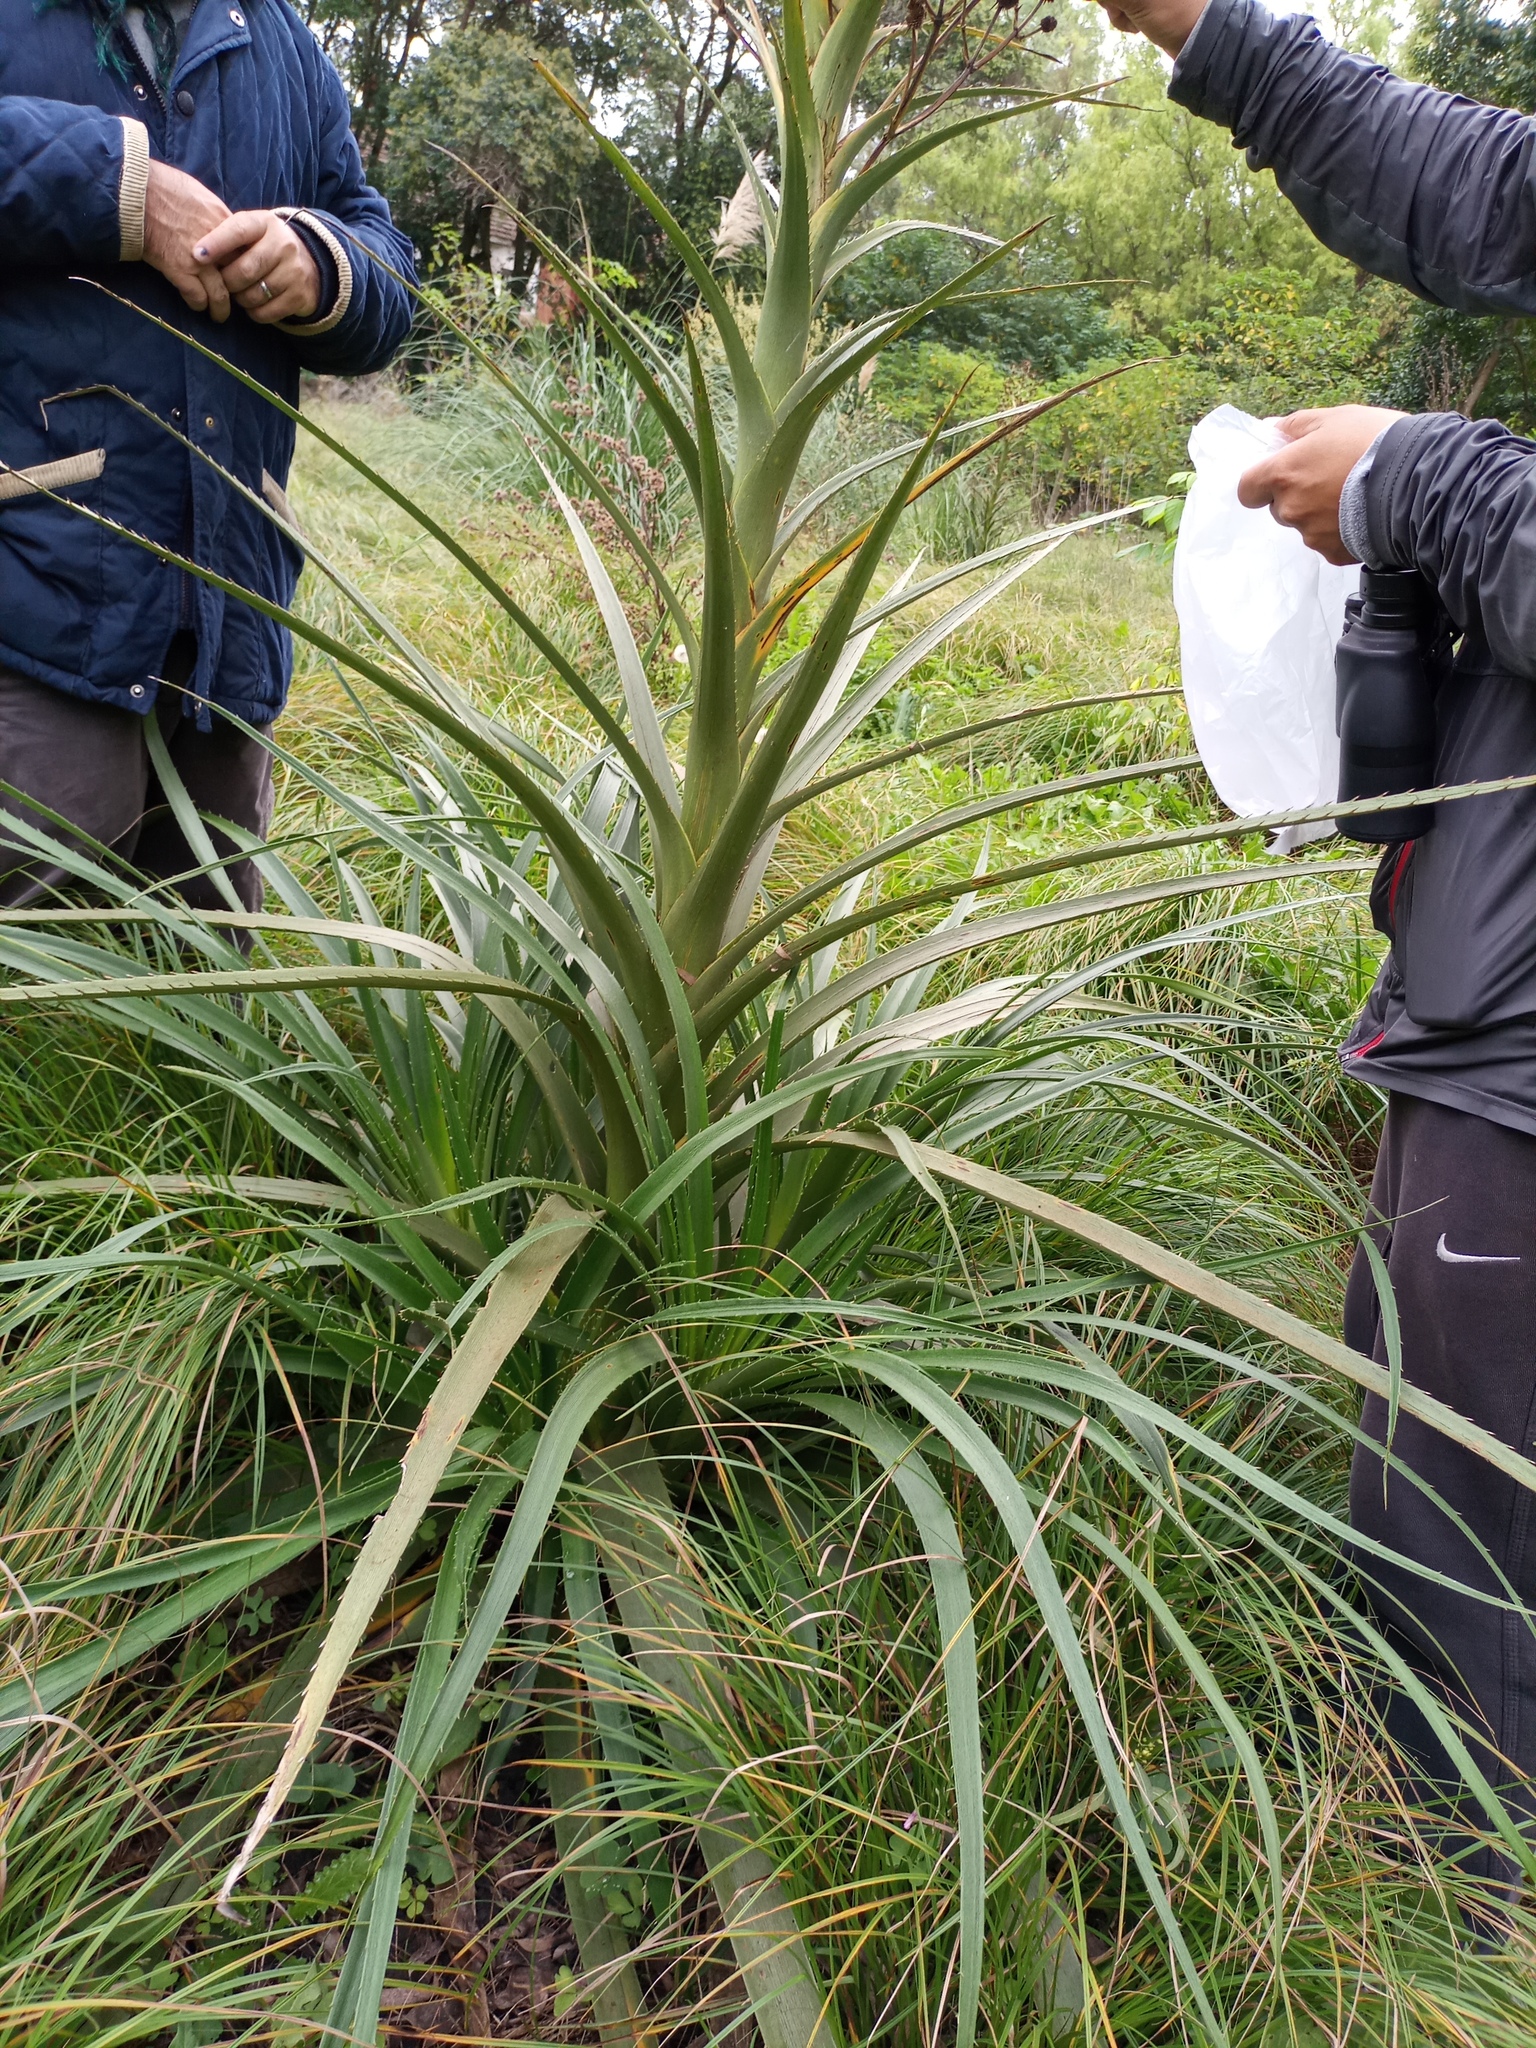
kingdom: Plantae
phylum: Tracheophyta
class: Magnoliopsida
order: Apiales
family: Apiaceae
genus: Eryngium
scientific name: Eryngium horridum
